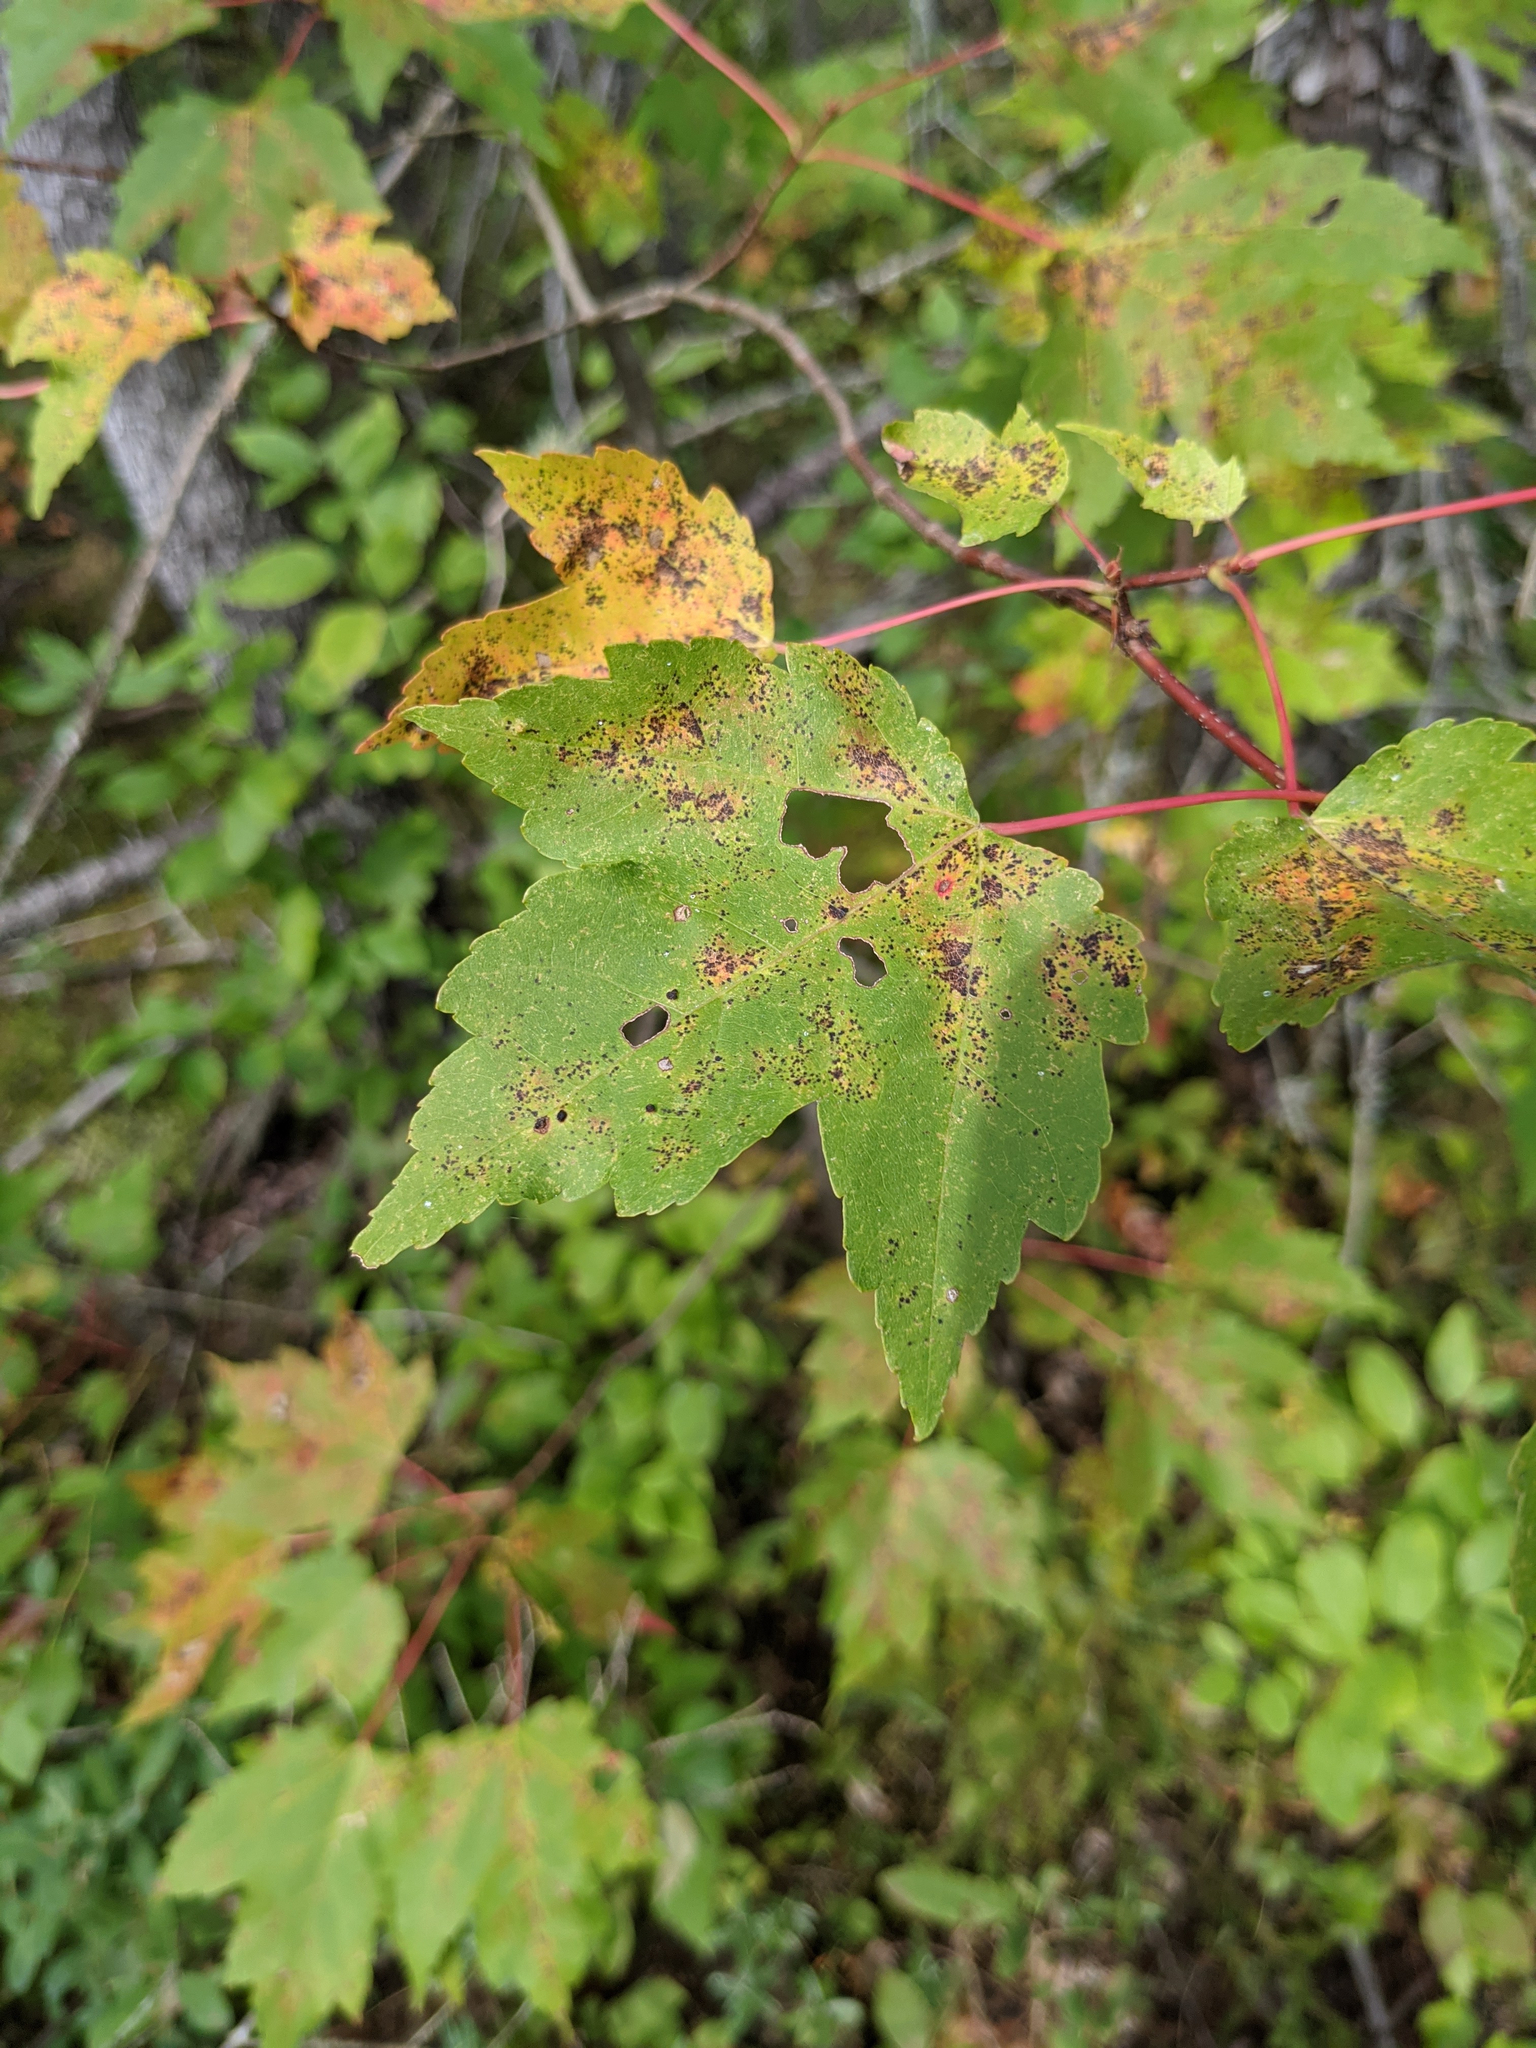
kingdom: Plantae
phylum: Tracheophyta
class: Magnoliopsida
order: Sapindales
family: Sapindaceae
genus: Acer
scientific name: Acer rubrum
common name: Red maple
